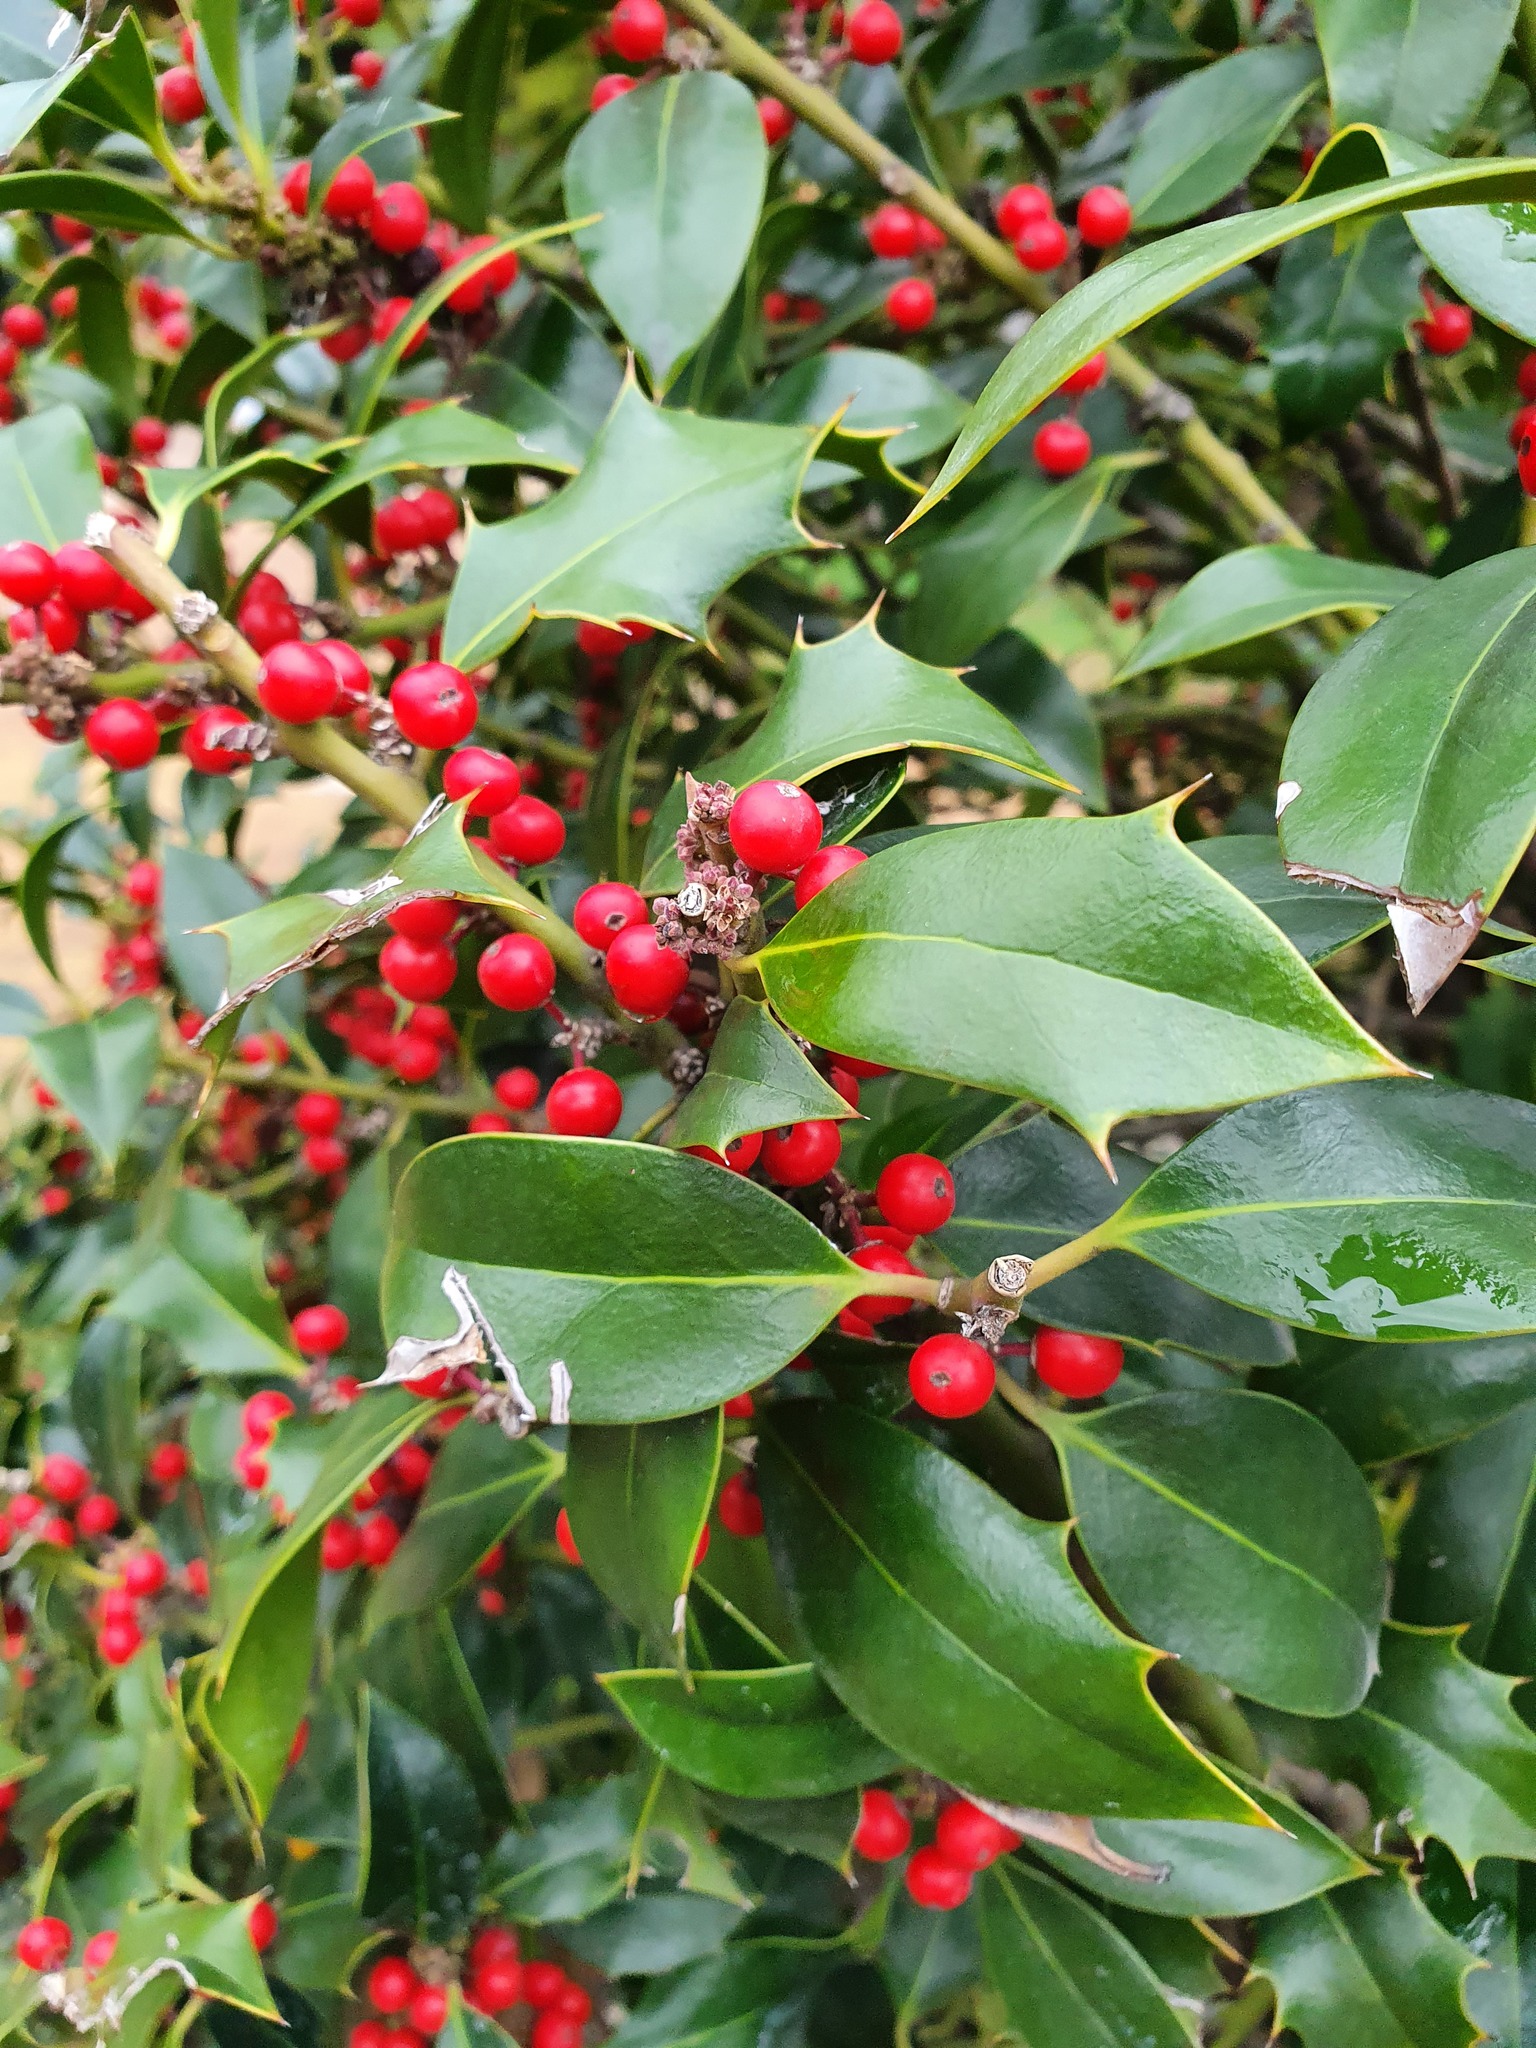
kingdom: Plantae
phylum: Tracheophyta
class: Magnoliopsida
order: Aquifoliales
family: Aquifoliaceae
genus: Ilex
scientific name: Ilex colchica
